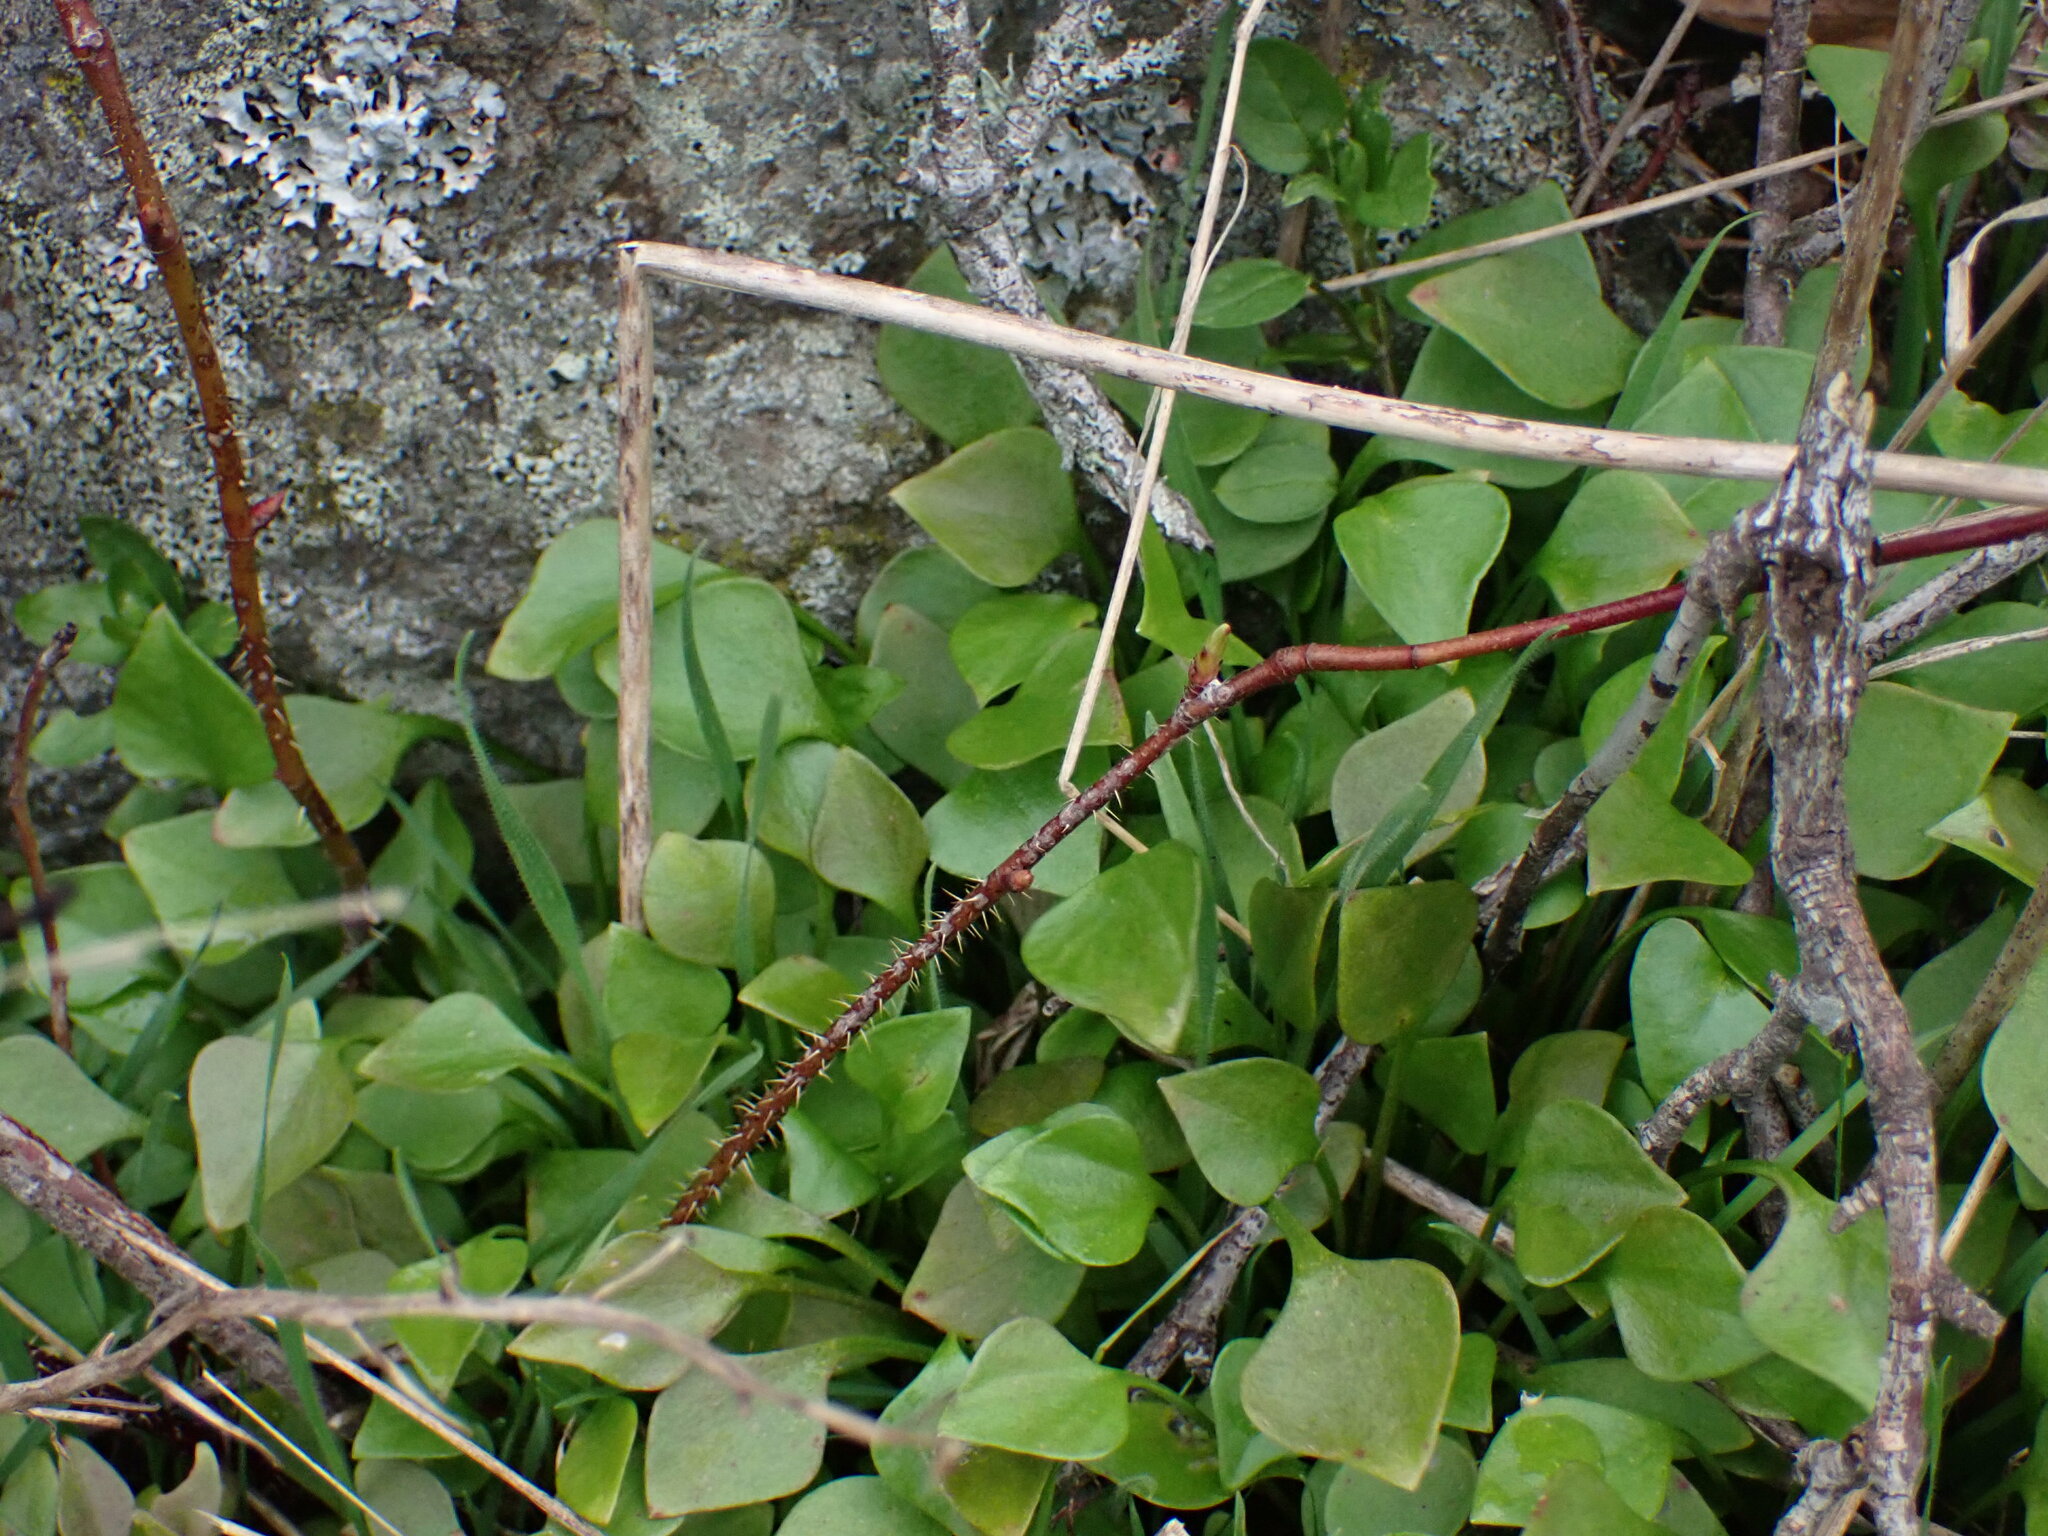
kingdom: Plantae
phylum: Tracheophyta
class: Magnoliopsida
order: Caryophyllales
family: Montiaceae
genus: Claytonia
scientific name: Claytonia perfoliata
